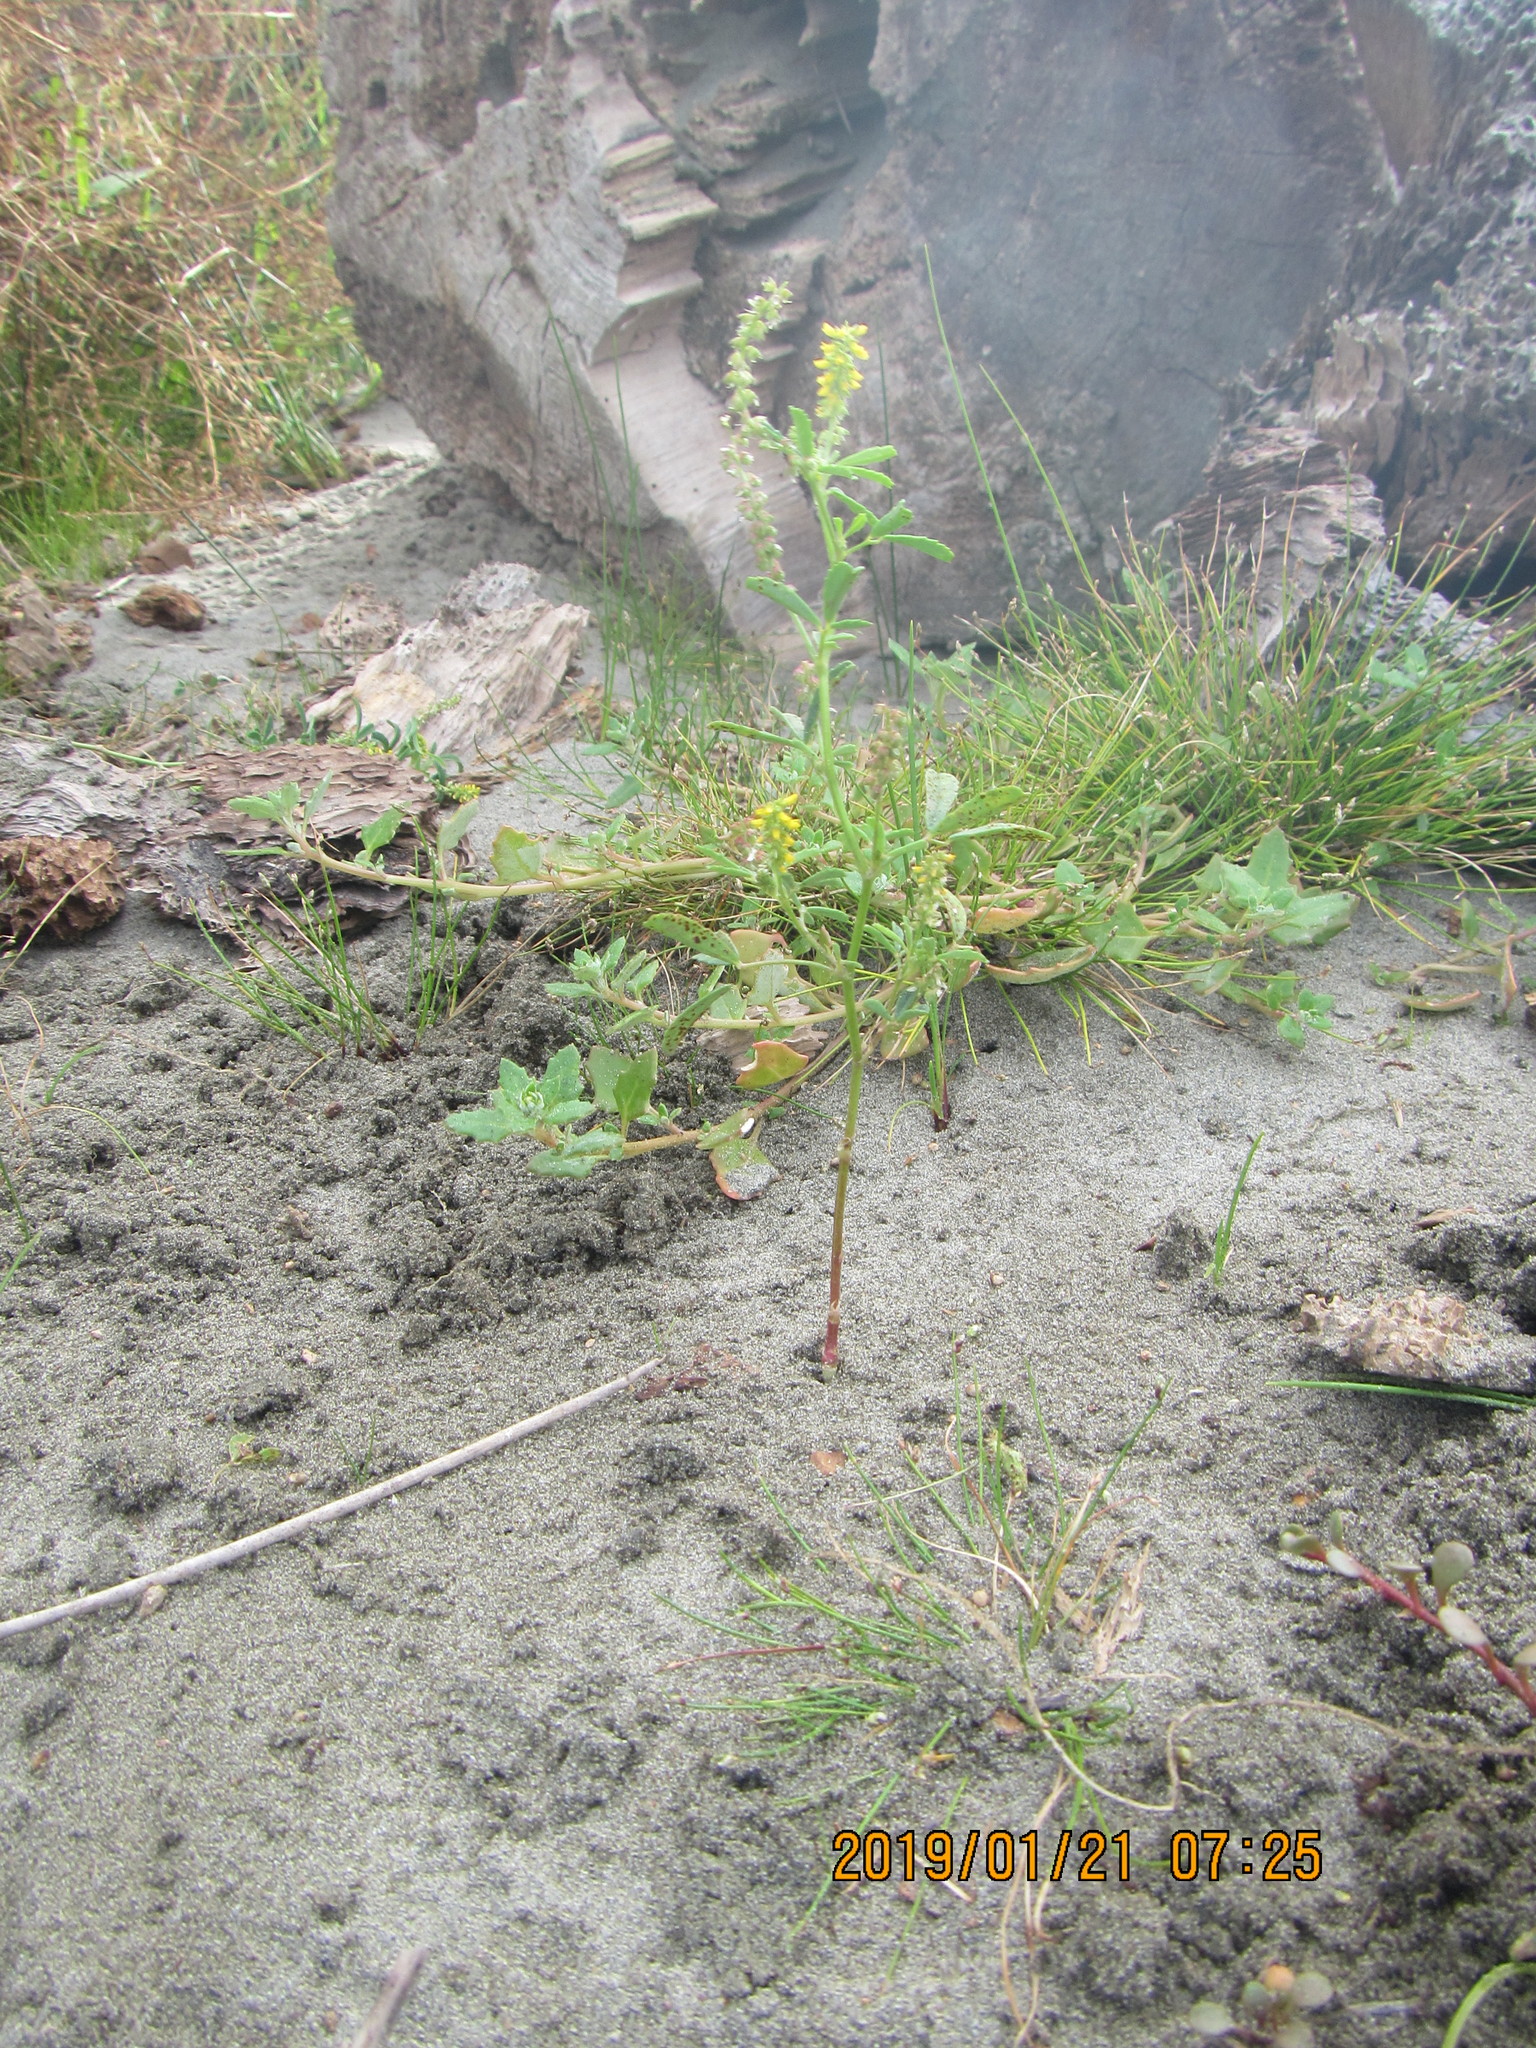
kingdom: Plantae
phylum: Tracheophyta
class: Magnoliopsida
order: Fabales
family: Fabaceae
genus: Melilotus
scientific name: Melilotus indicus
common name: Small melilot
